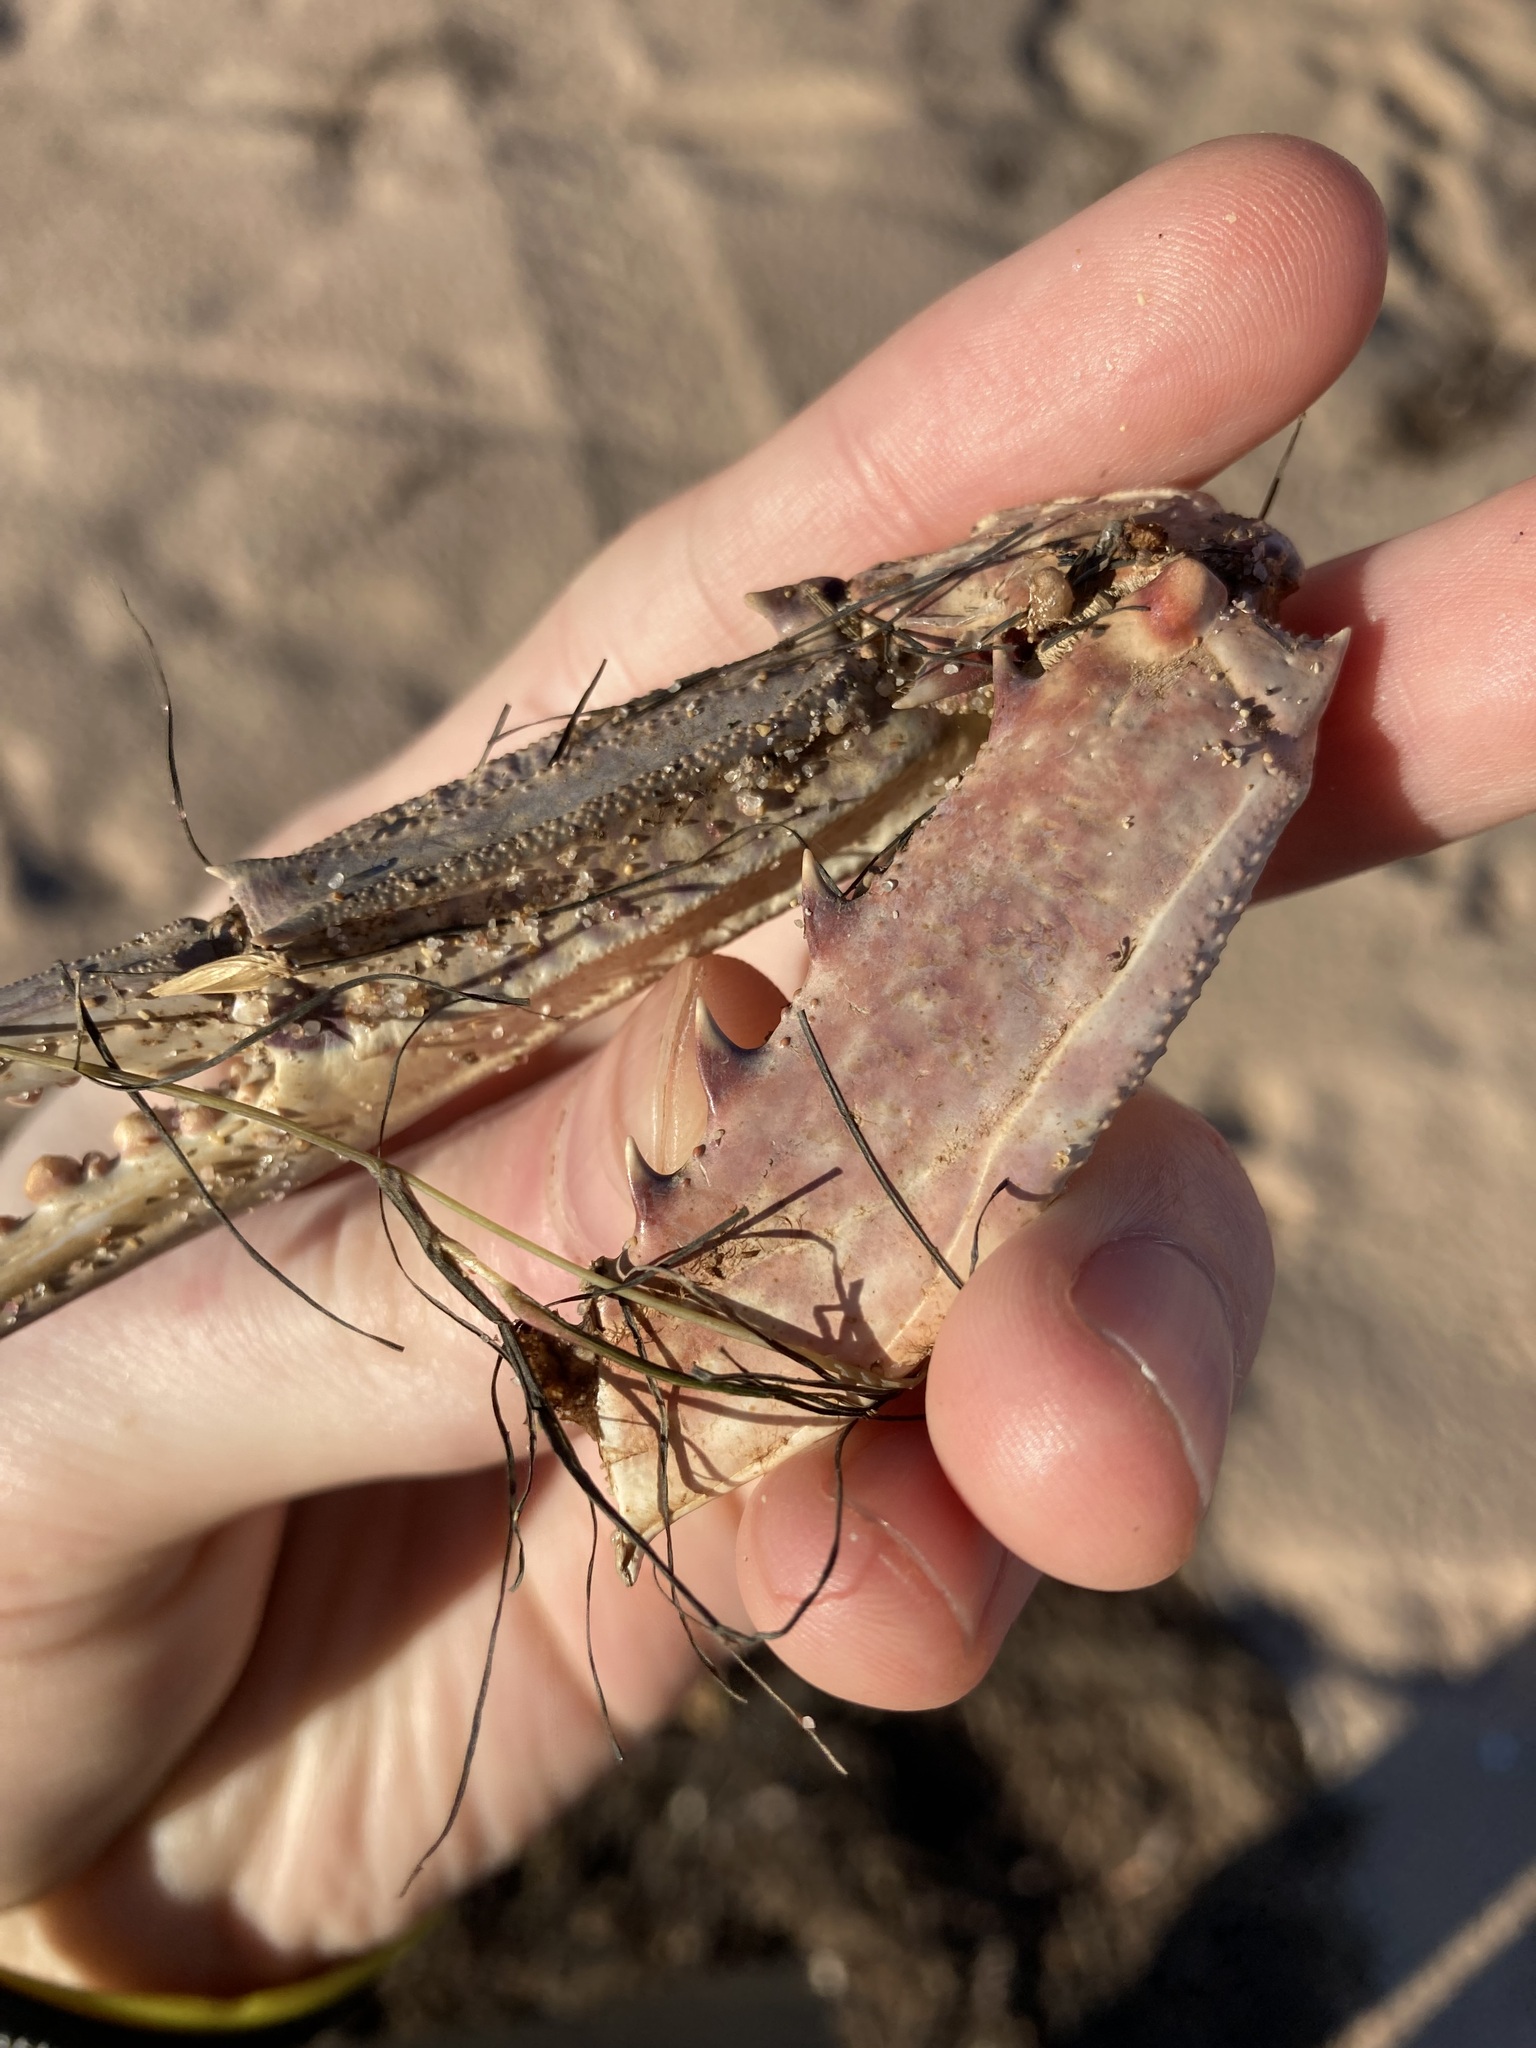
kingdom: Animalia
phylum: Arthropoda
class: Malacostraca
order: Decapoda
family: Portunidae
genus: Portunus
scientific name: Portunus armatus
